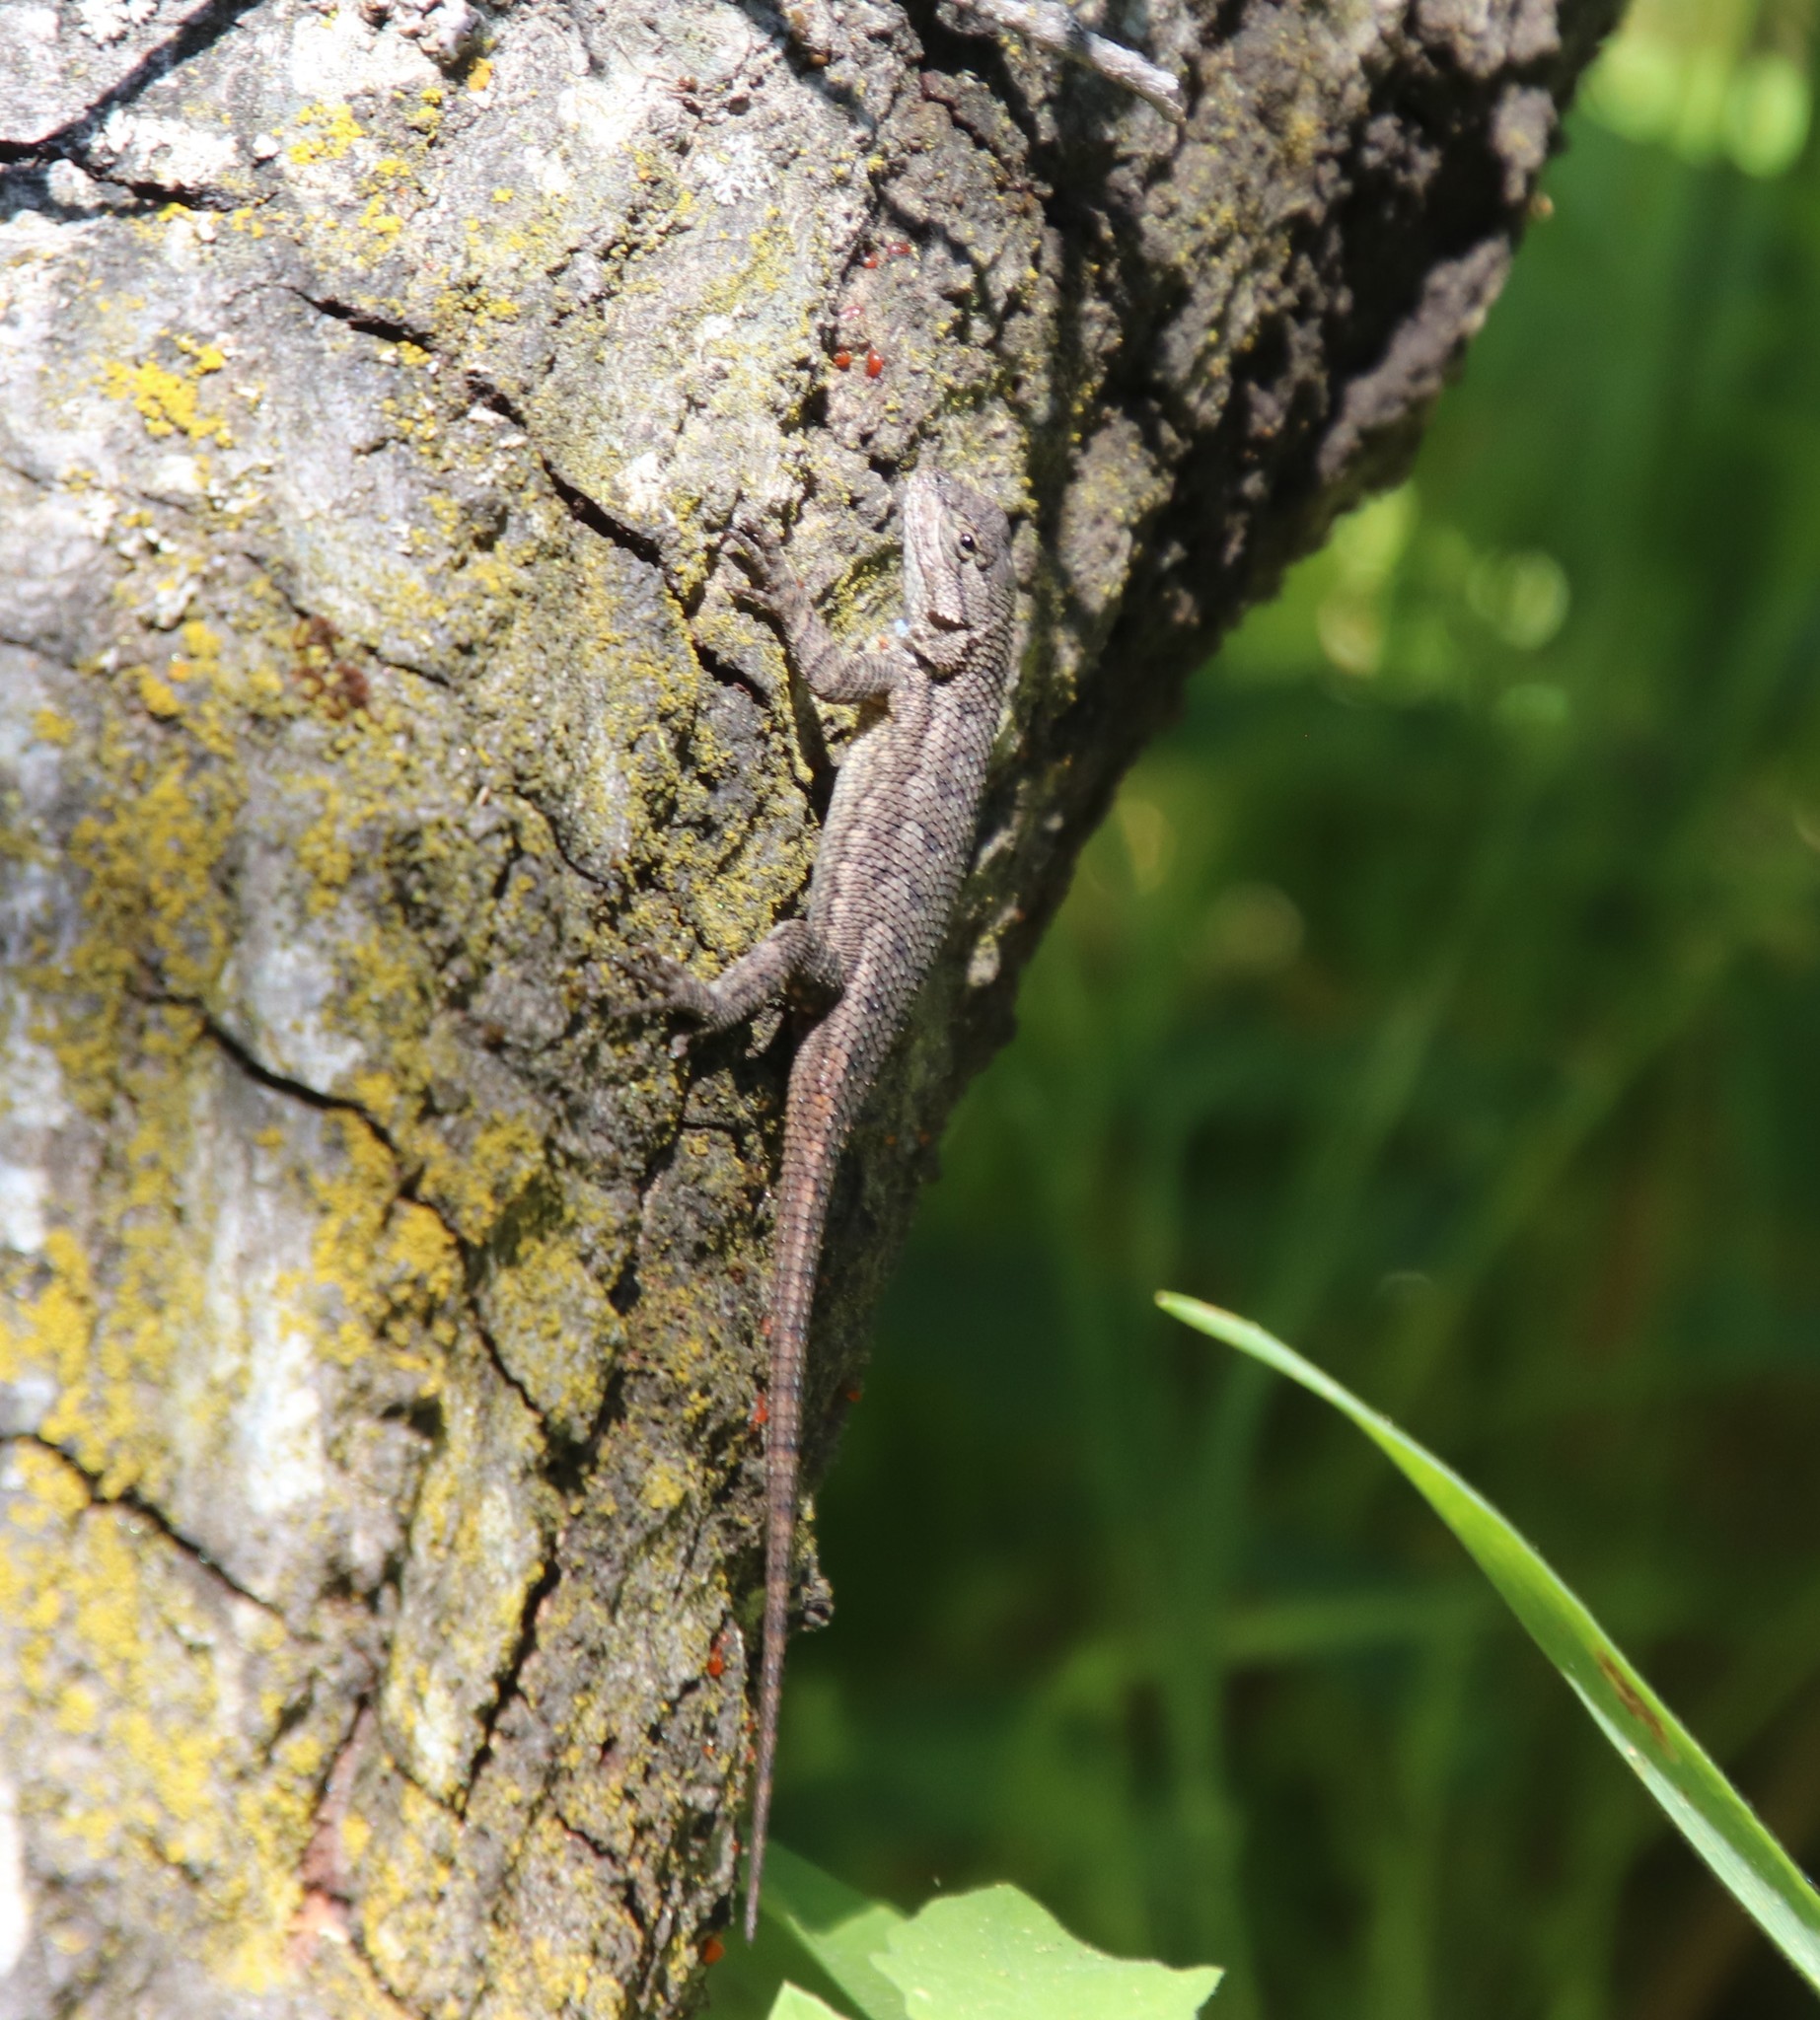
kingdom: Animalia
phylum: Chordata
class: Squamata
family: Phrynosomatidae
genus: Sceloporus
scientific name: Sceloporus occidentalis
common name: Western fence lizard
